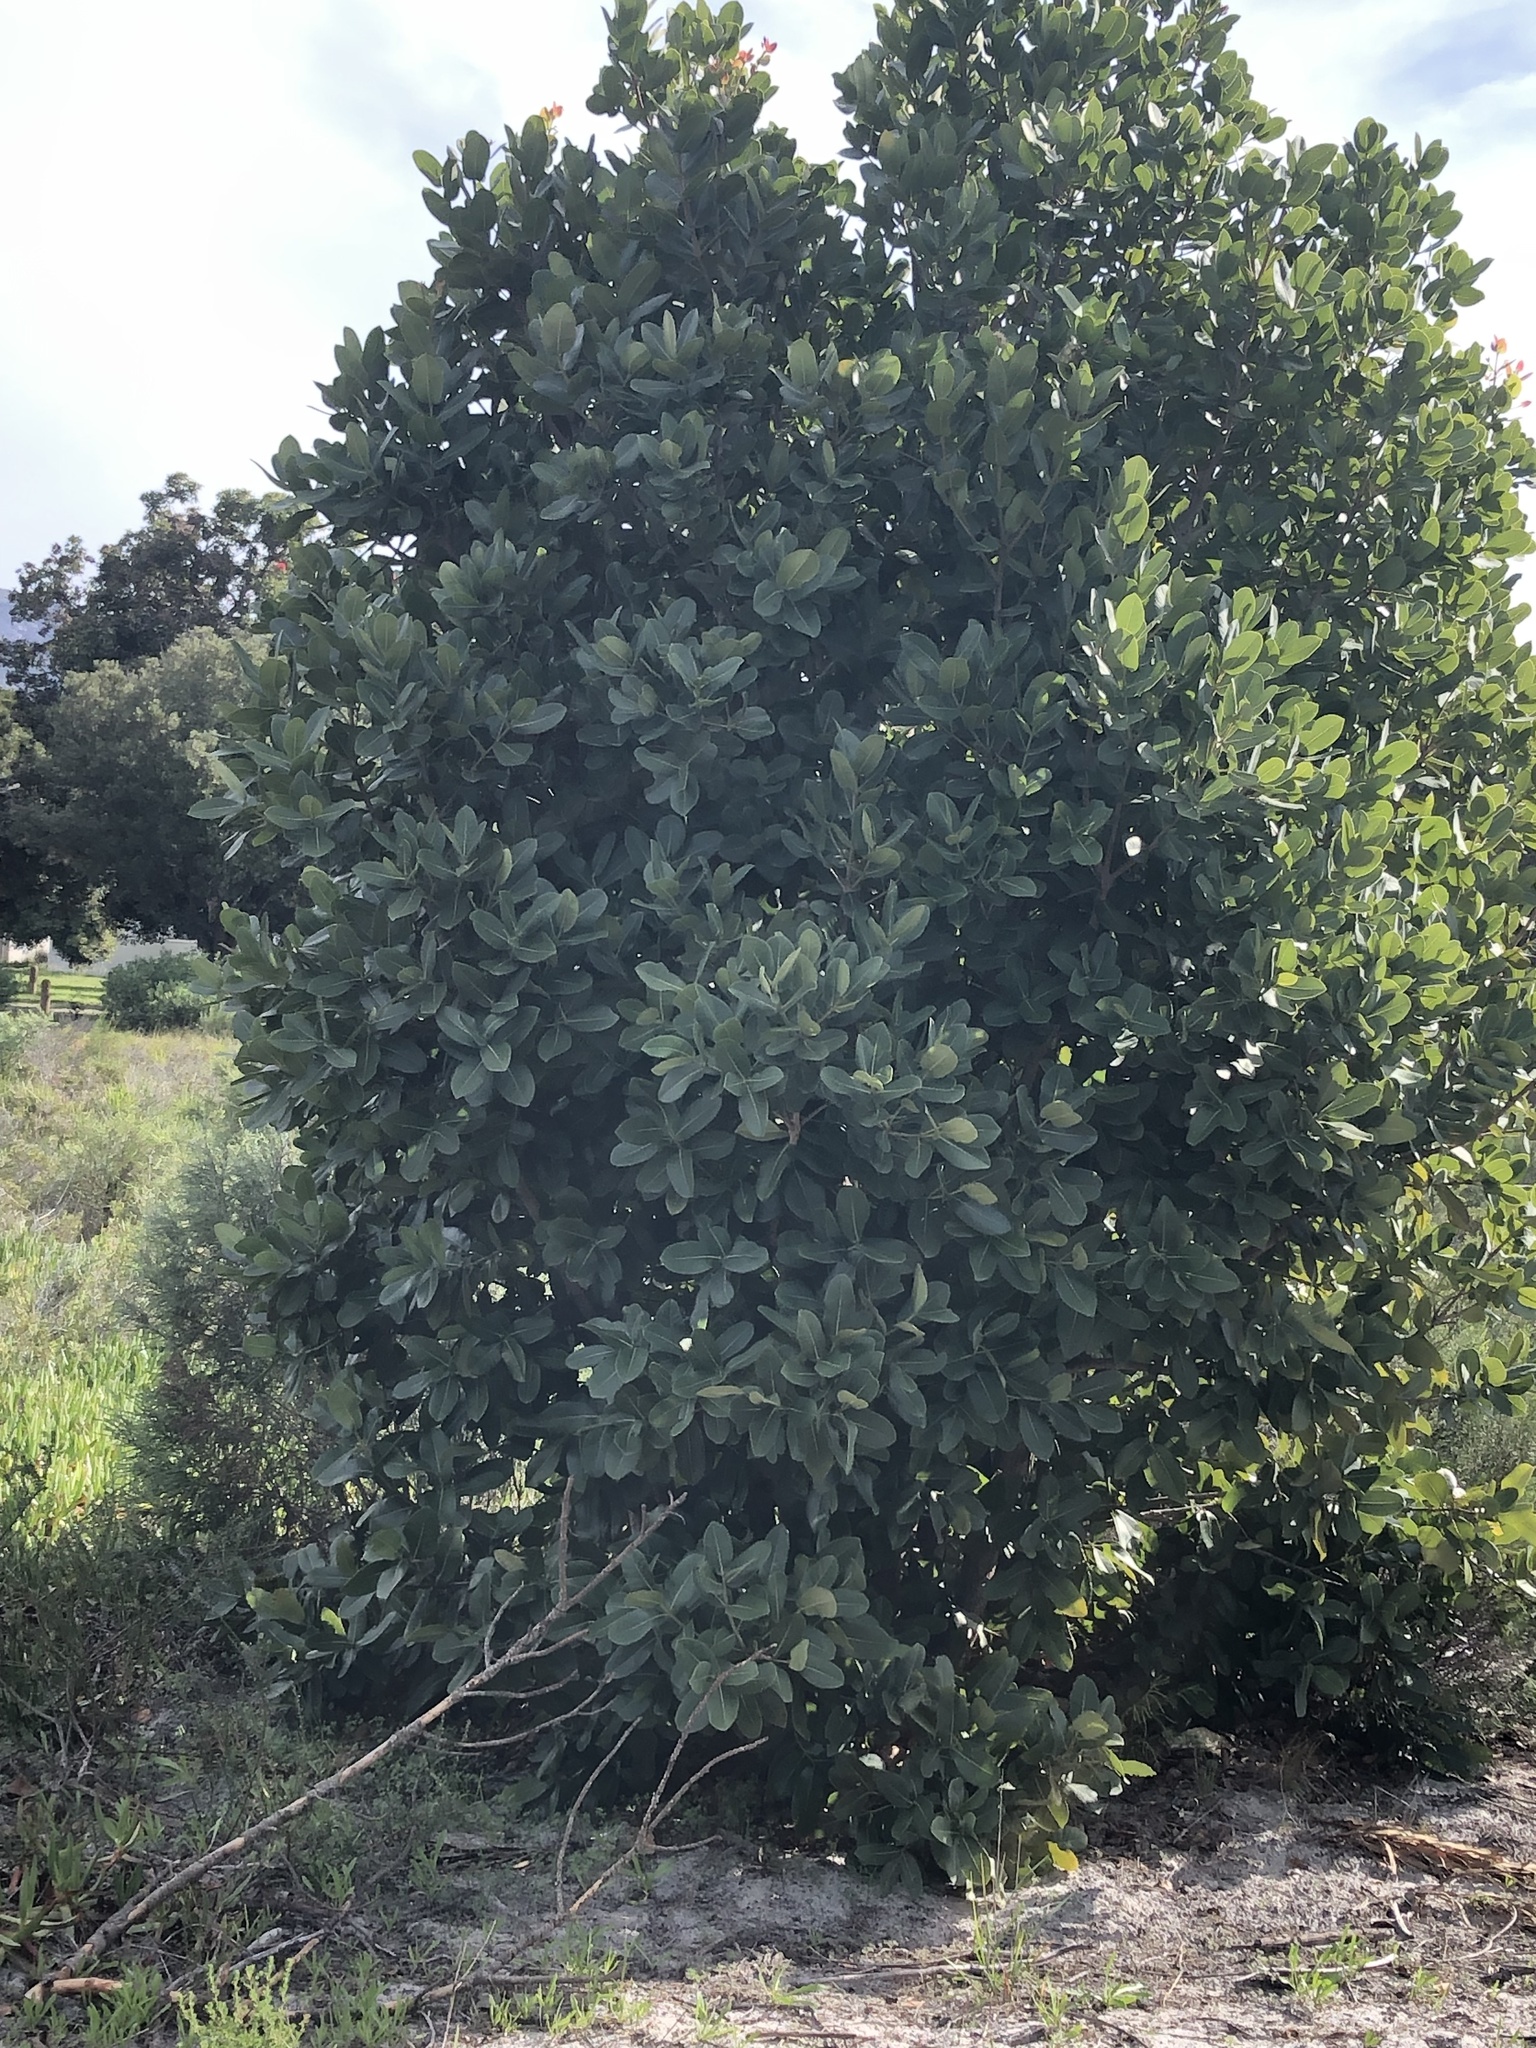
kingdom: Plantae
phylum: Tracheophyta
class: Magnoliopsida
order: Myrtales
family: Myrtaceae
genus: Syzygium
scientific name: Syzygium cordatum
